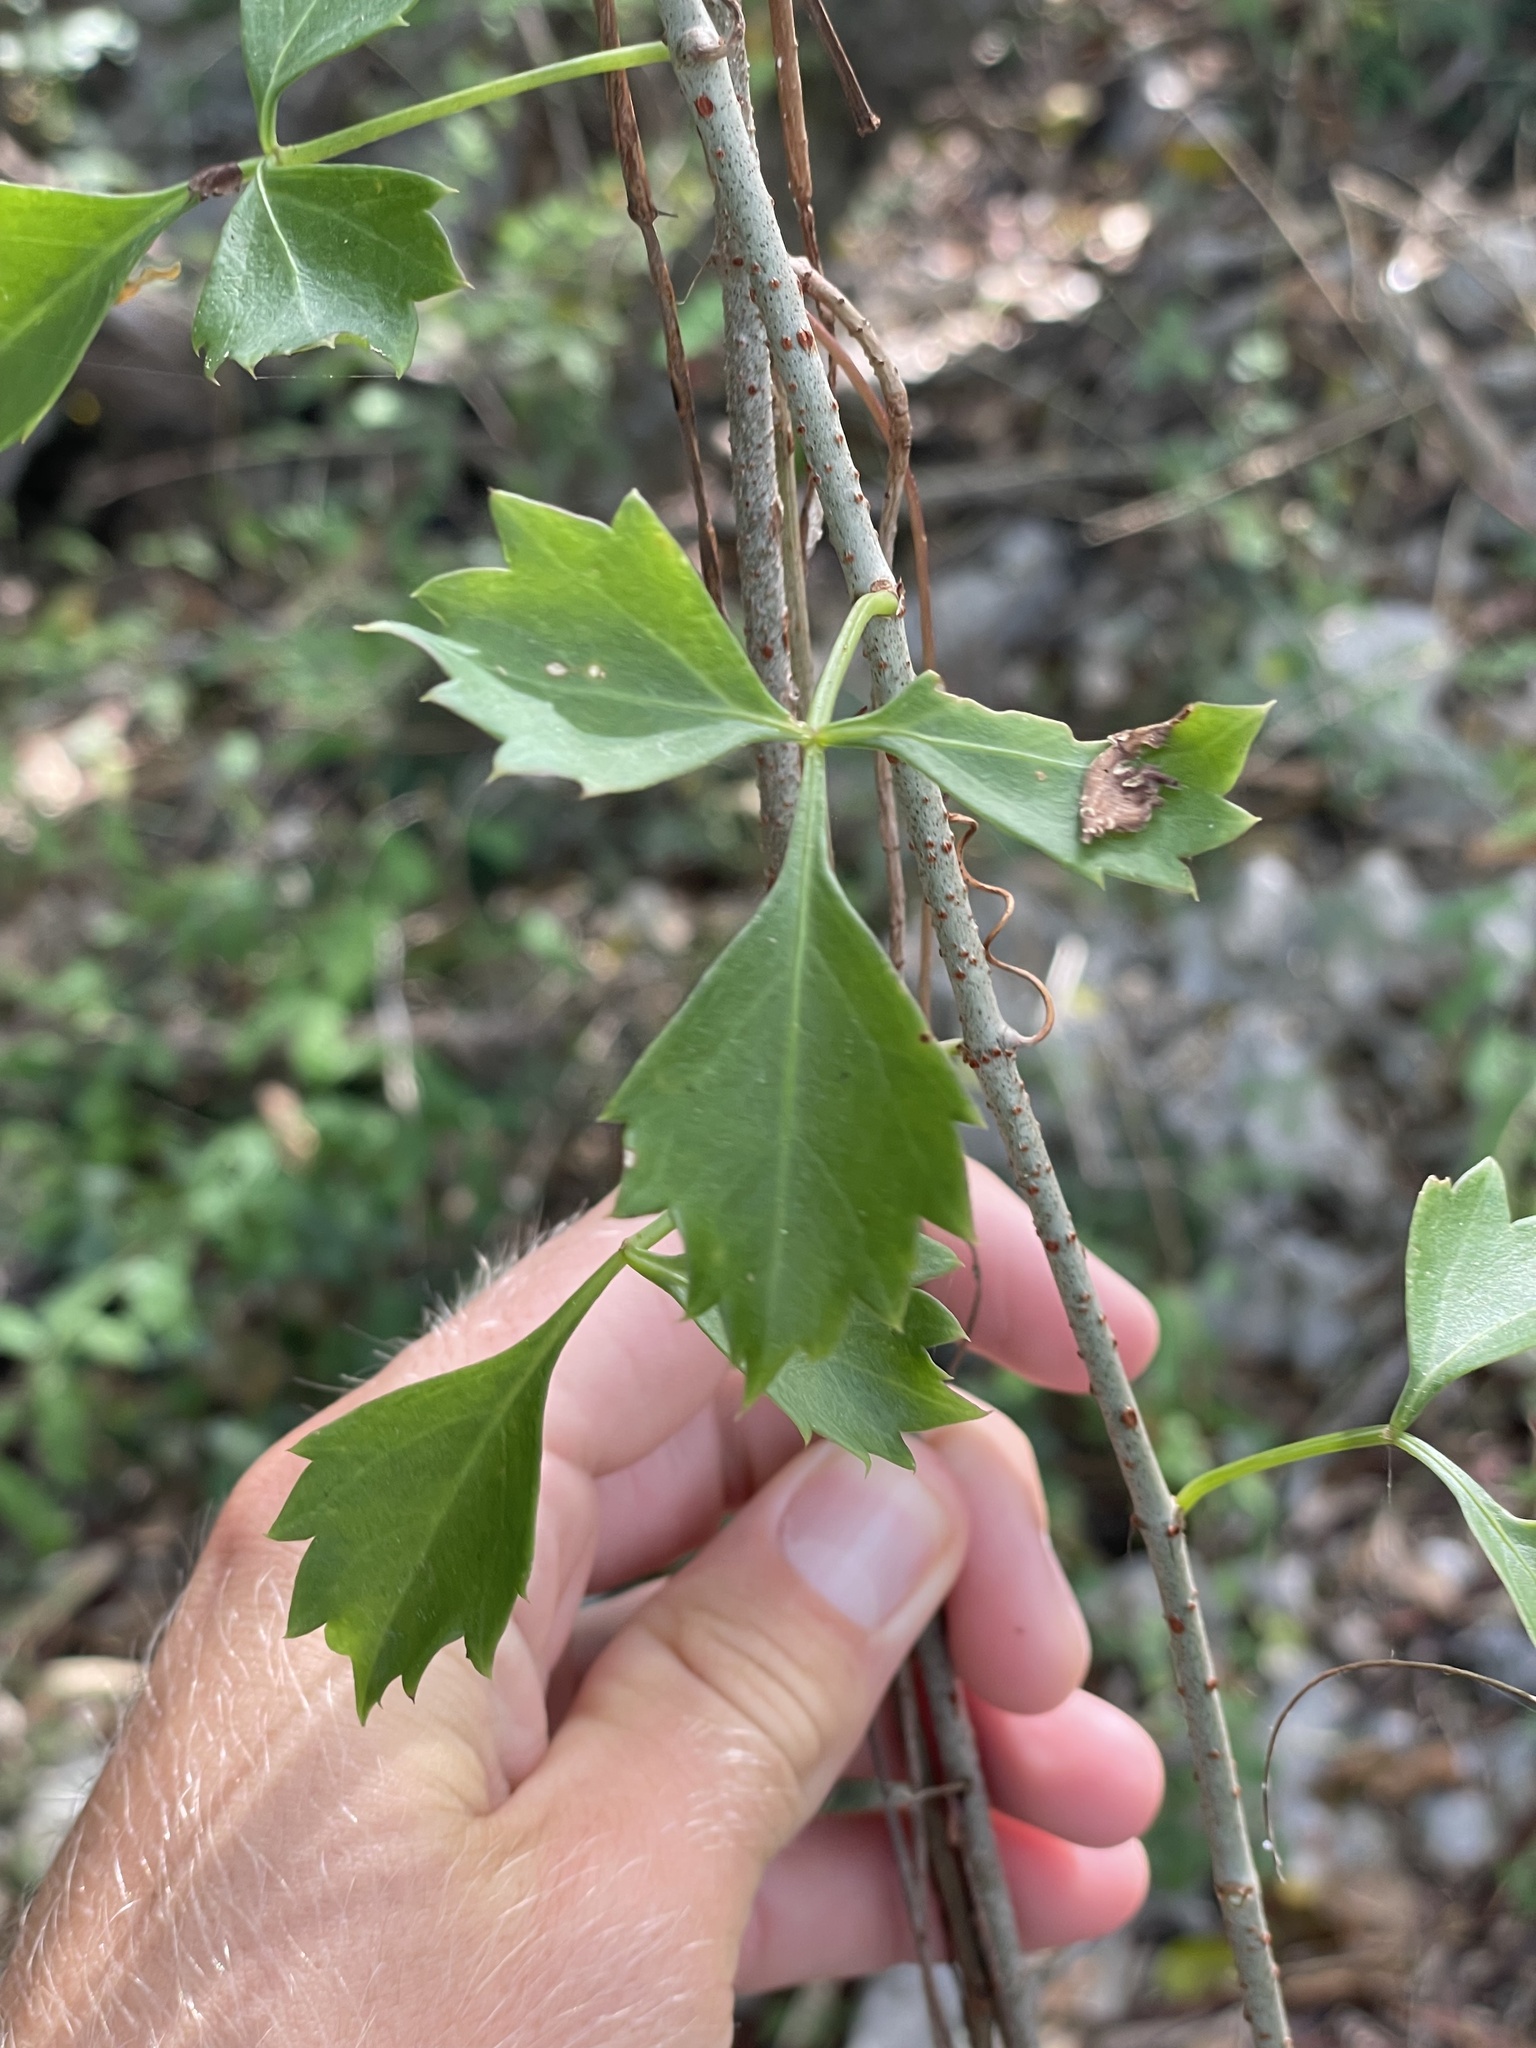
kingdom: Plantae
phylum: Tracheophyta
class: Magnoliopsida
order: Vitales
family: Vitaceae
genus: Cissus
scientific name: Cissus trifoliata
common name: Vine-sorrel
